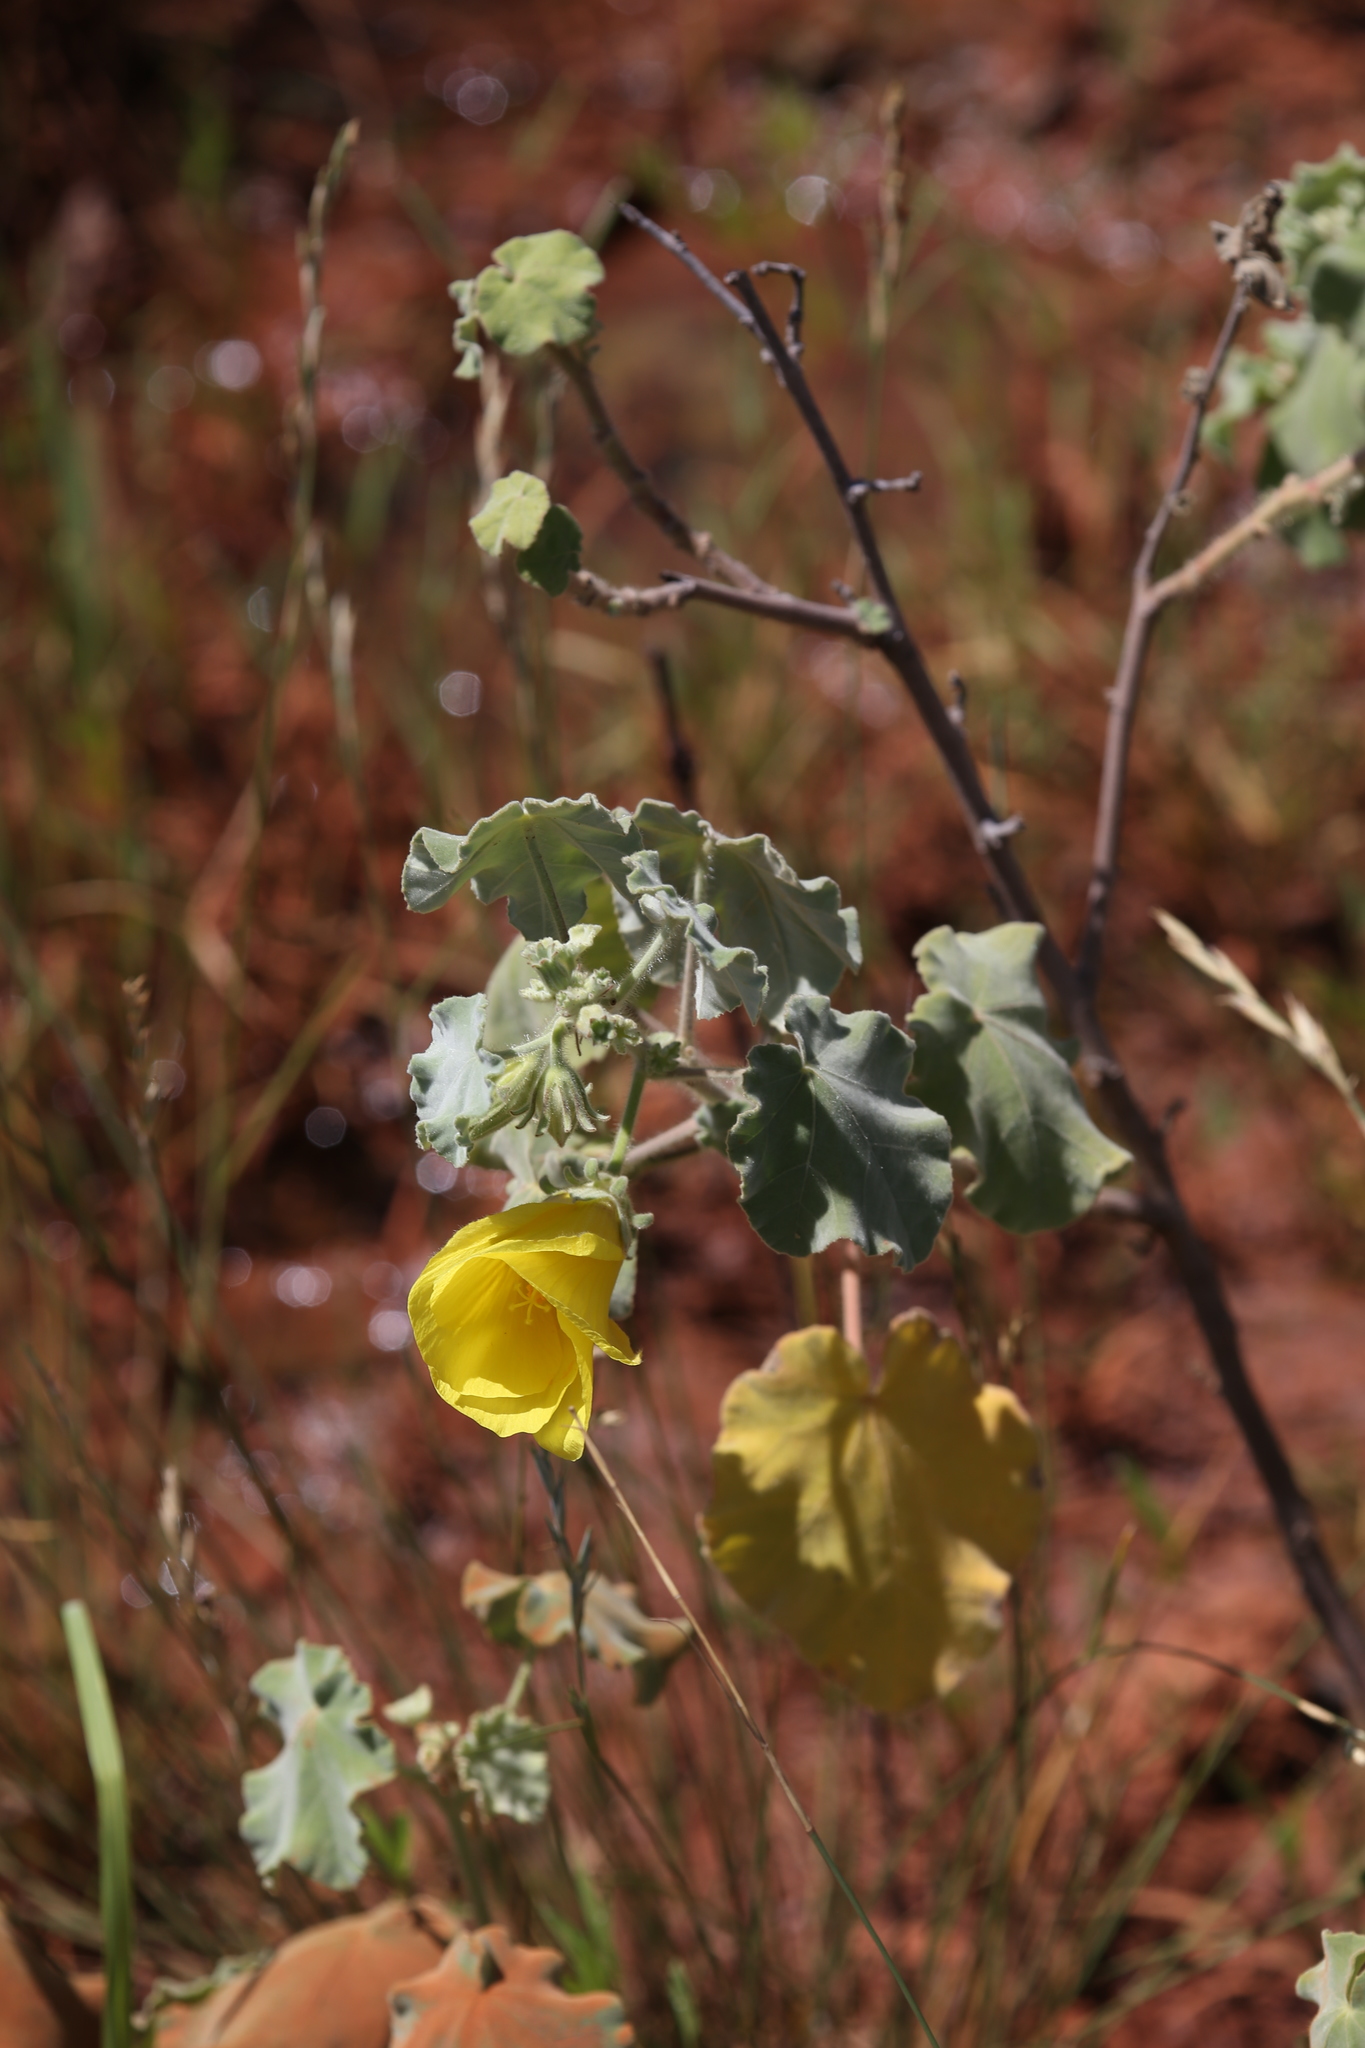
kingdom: Plantae
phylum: Tracheophyta
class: Magnoliopsida
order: Malvales
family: Malvaceae
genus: Hibiscus
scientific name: Hibiscus apodus
